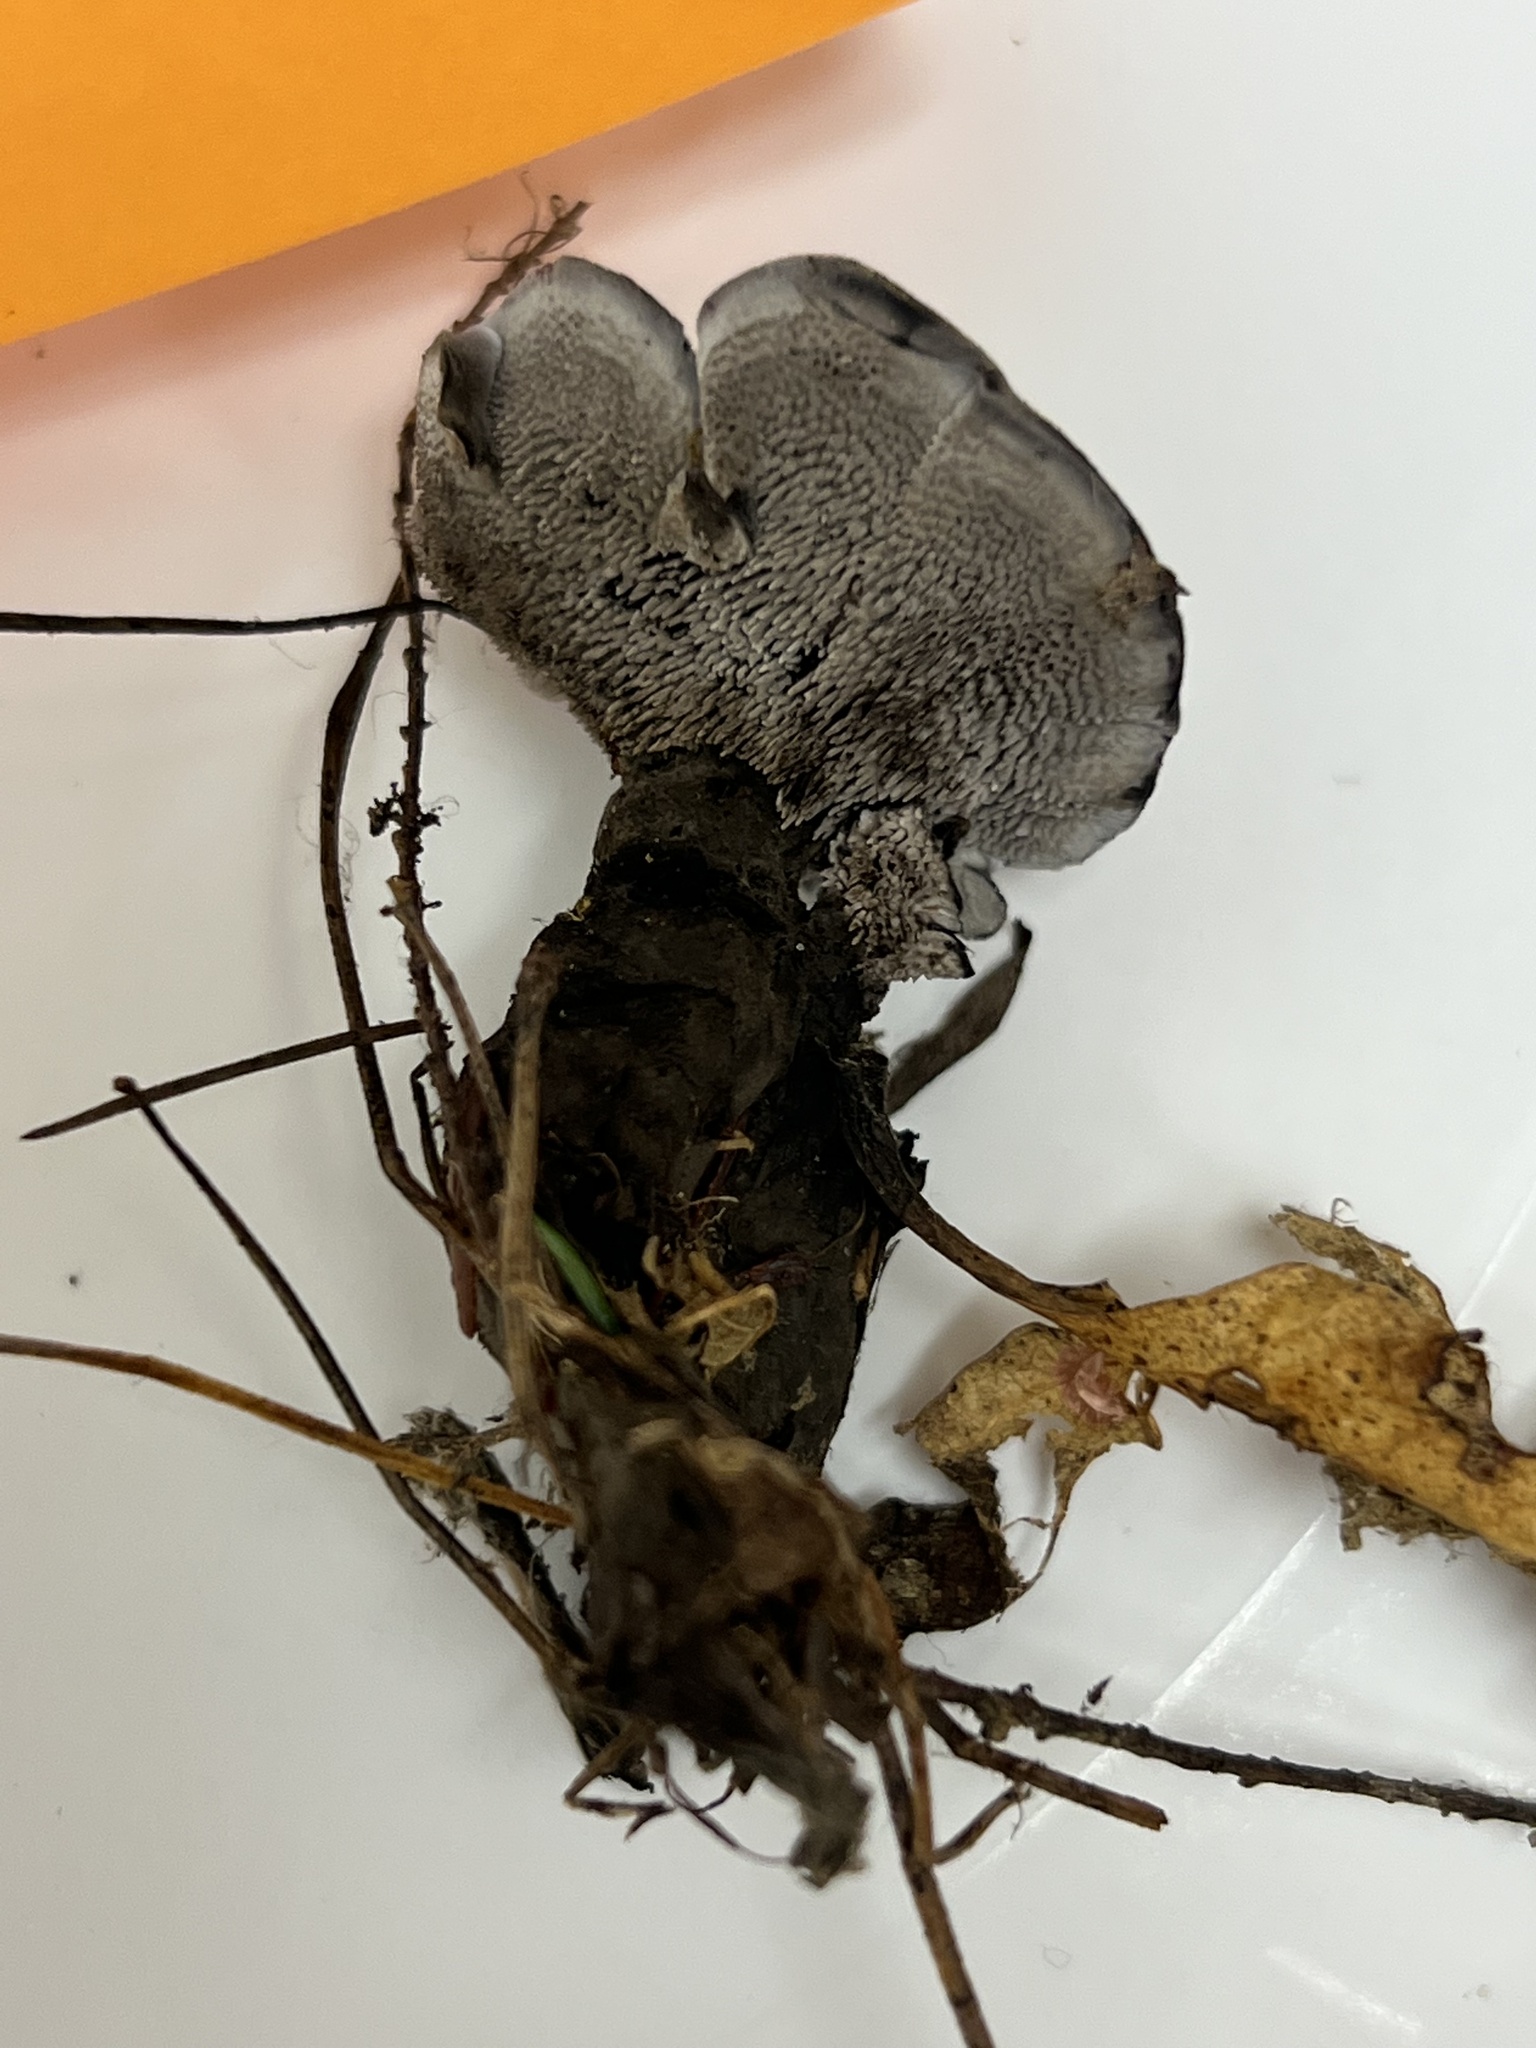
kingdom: Fungi
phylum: Basidiomycota
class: Agaricomycetes
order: Thelephorales
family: Thelephoraceae
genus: Phellodon
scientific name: Phellodon niger
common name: Black tooth
